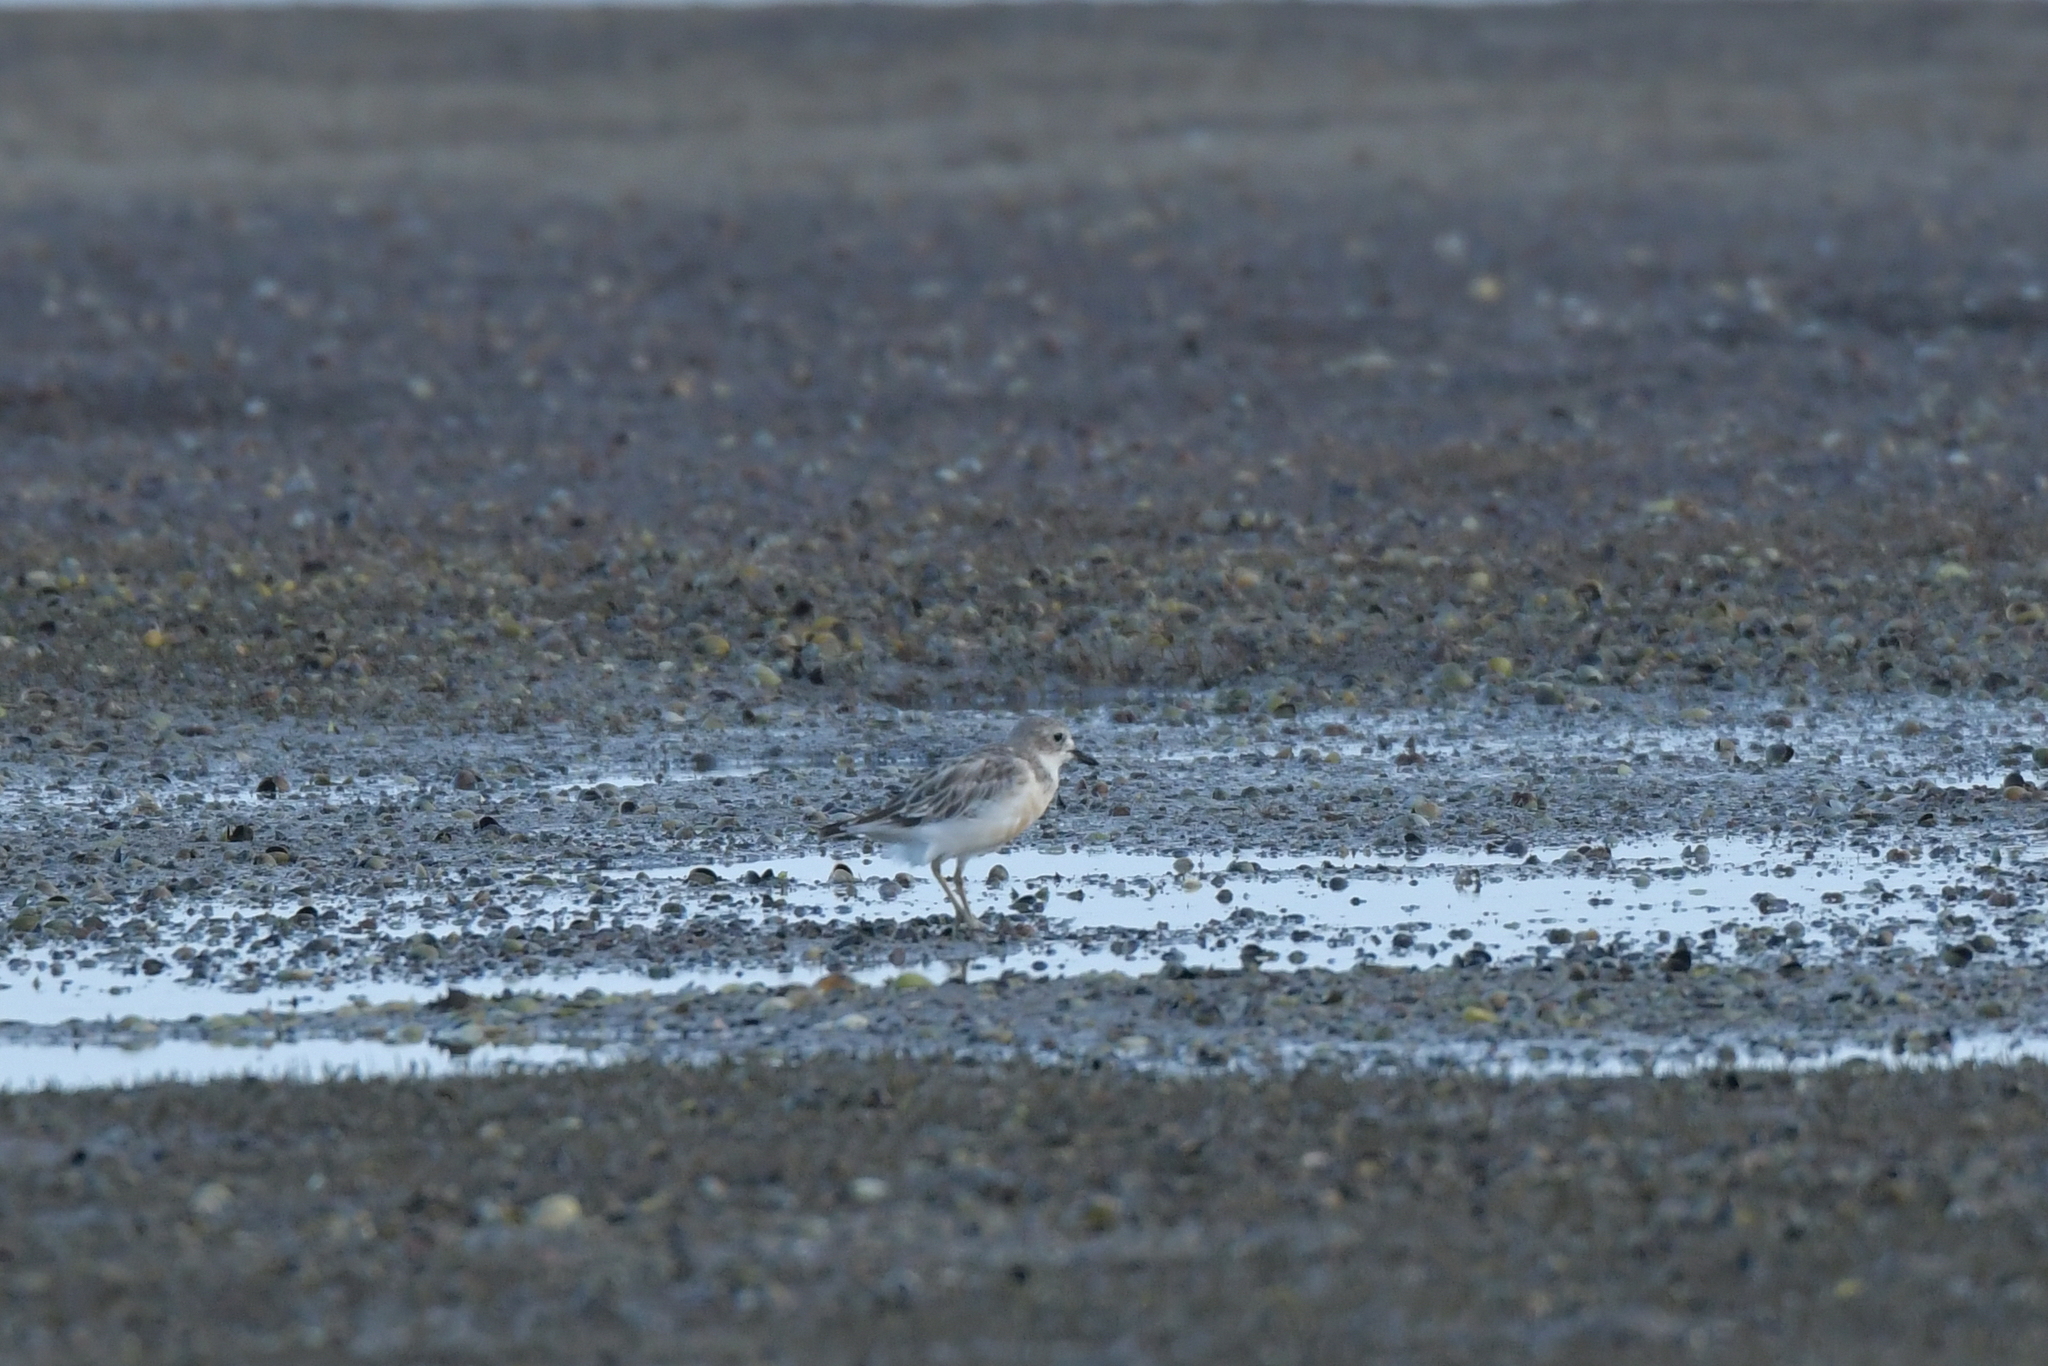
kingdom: Animalia
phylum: Chordata
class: Aves
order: Charadriiformes
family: Charadriidae
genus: Anarhynchus
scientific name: Anarhynchus
